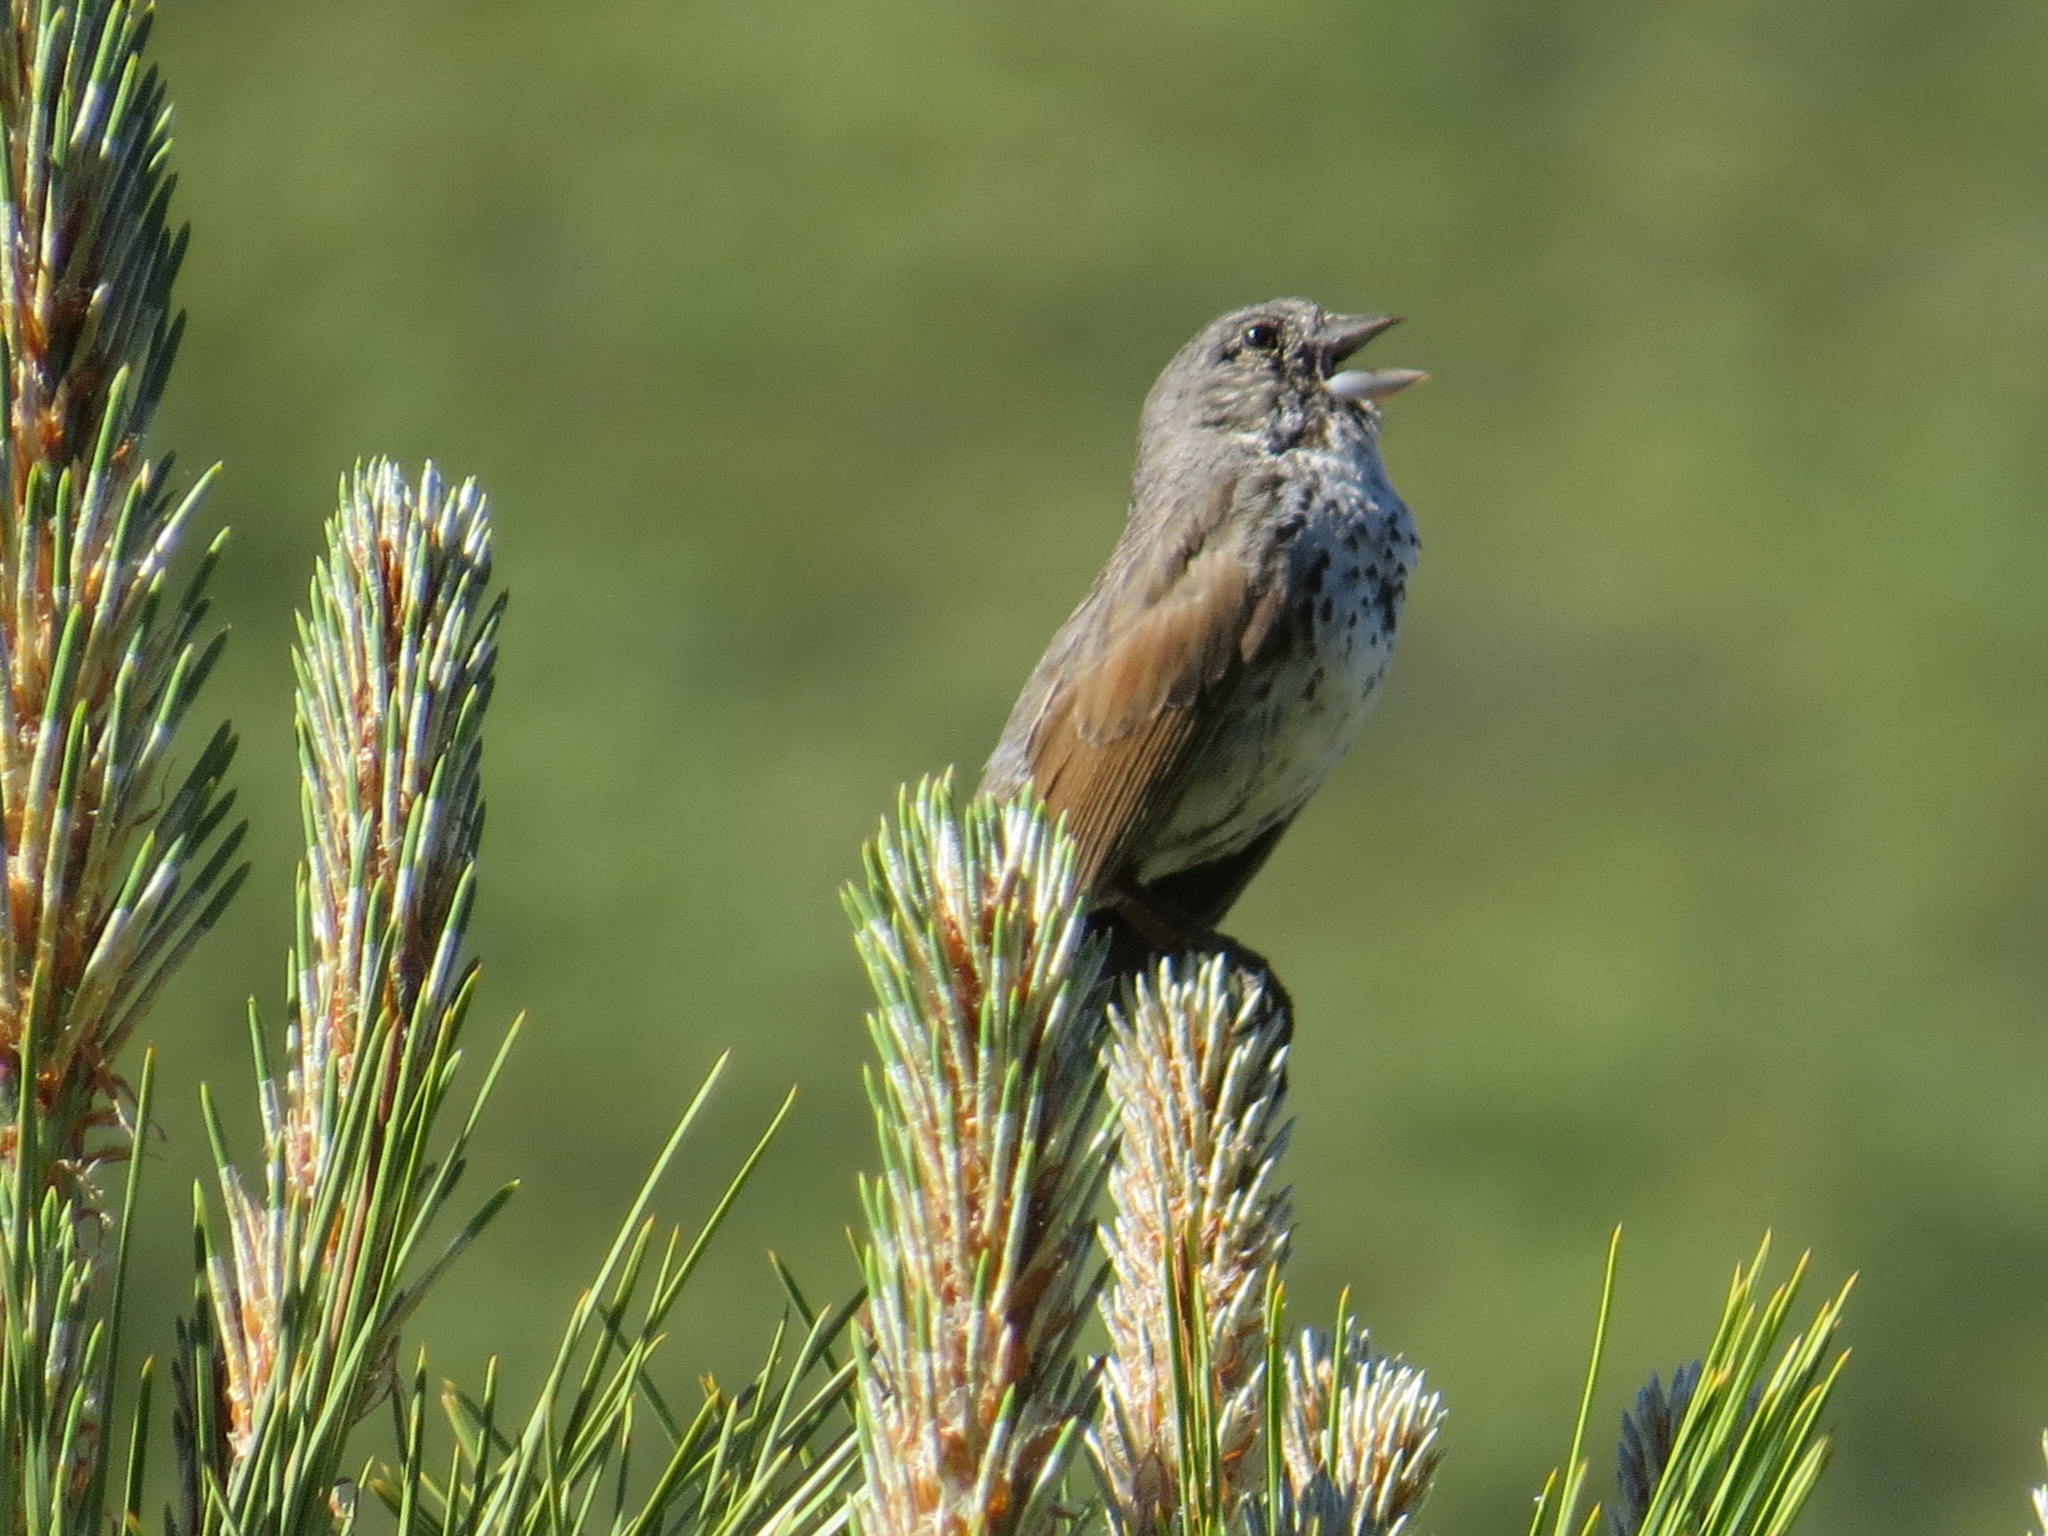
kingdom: Animalia
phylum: Chordata
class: Aves
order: Passeriformes
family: Passerellidae
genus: Passerella
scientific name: Passerella megarhyncha
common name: Thick-billed fox sparrow
